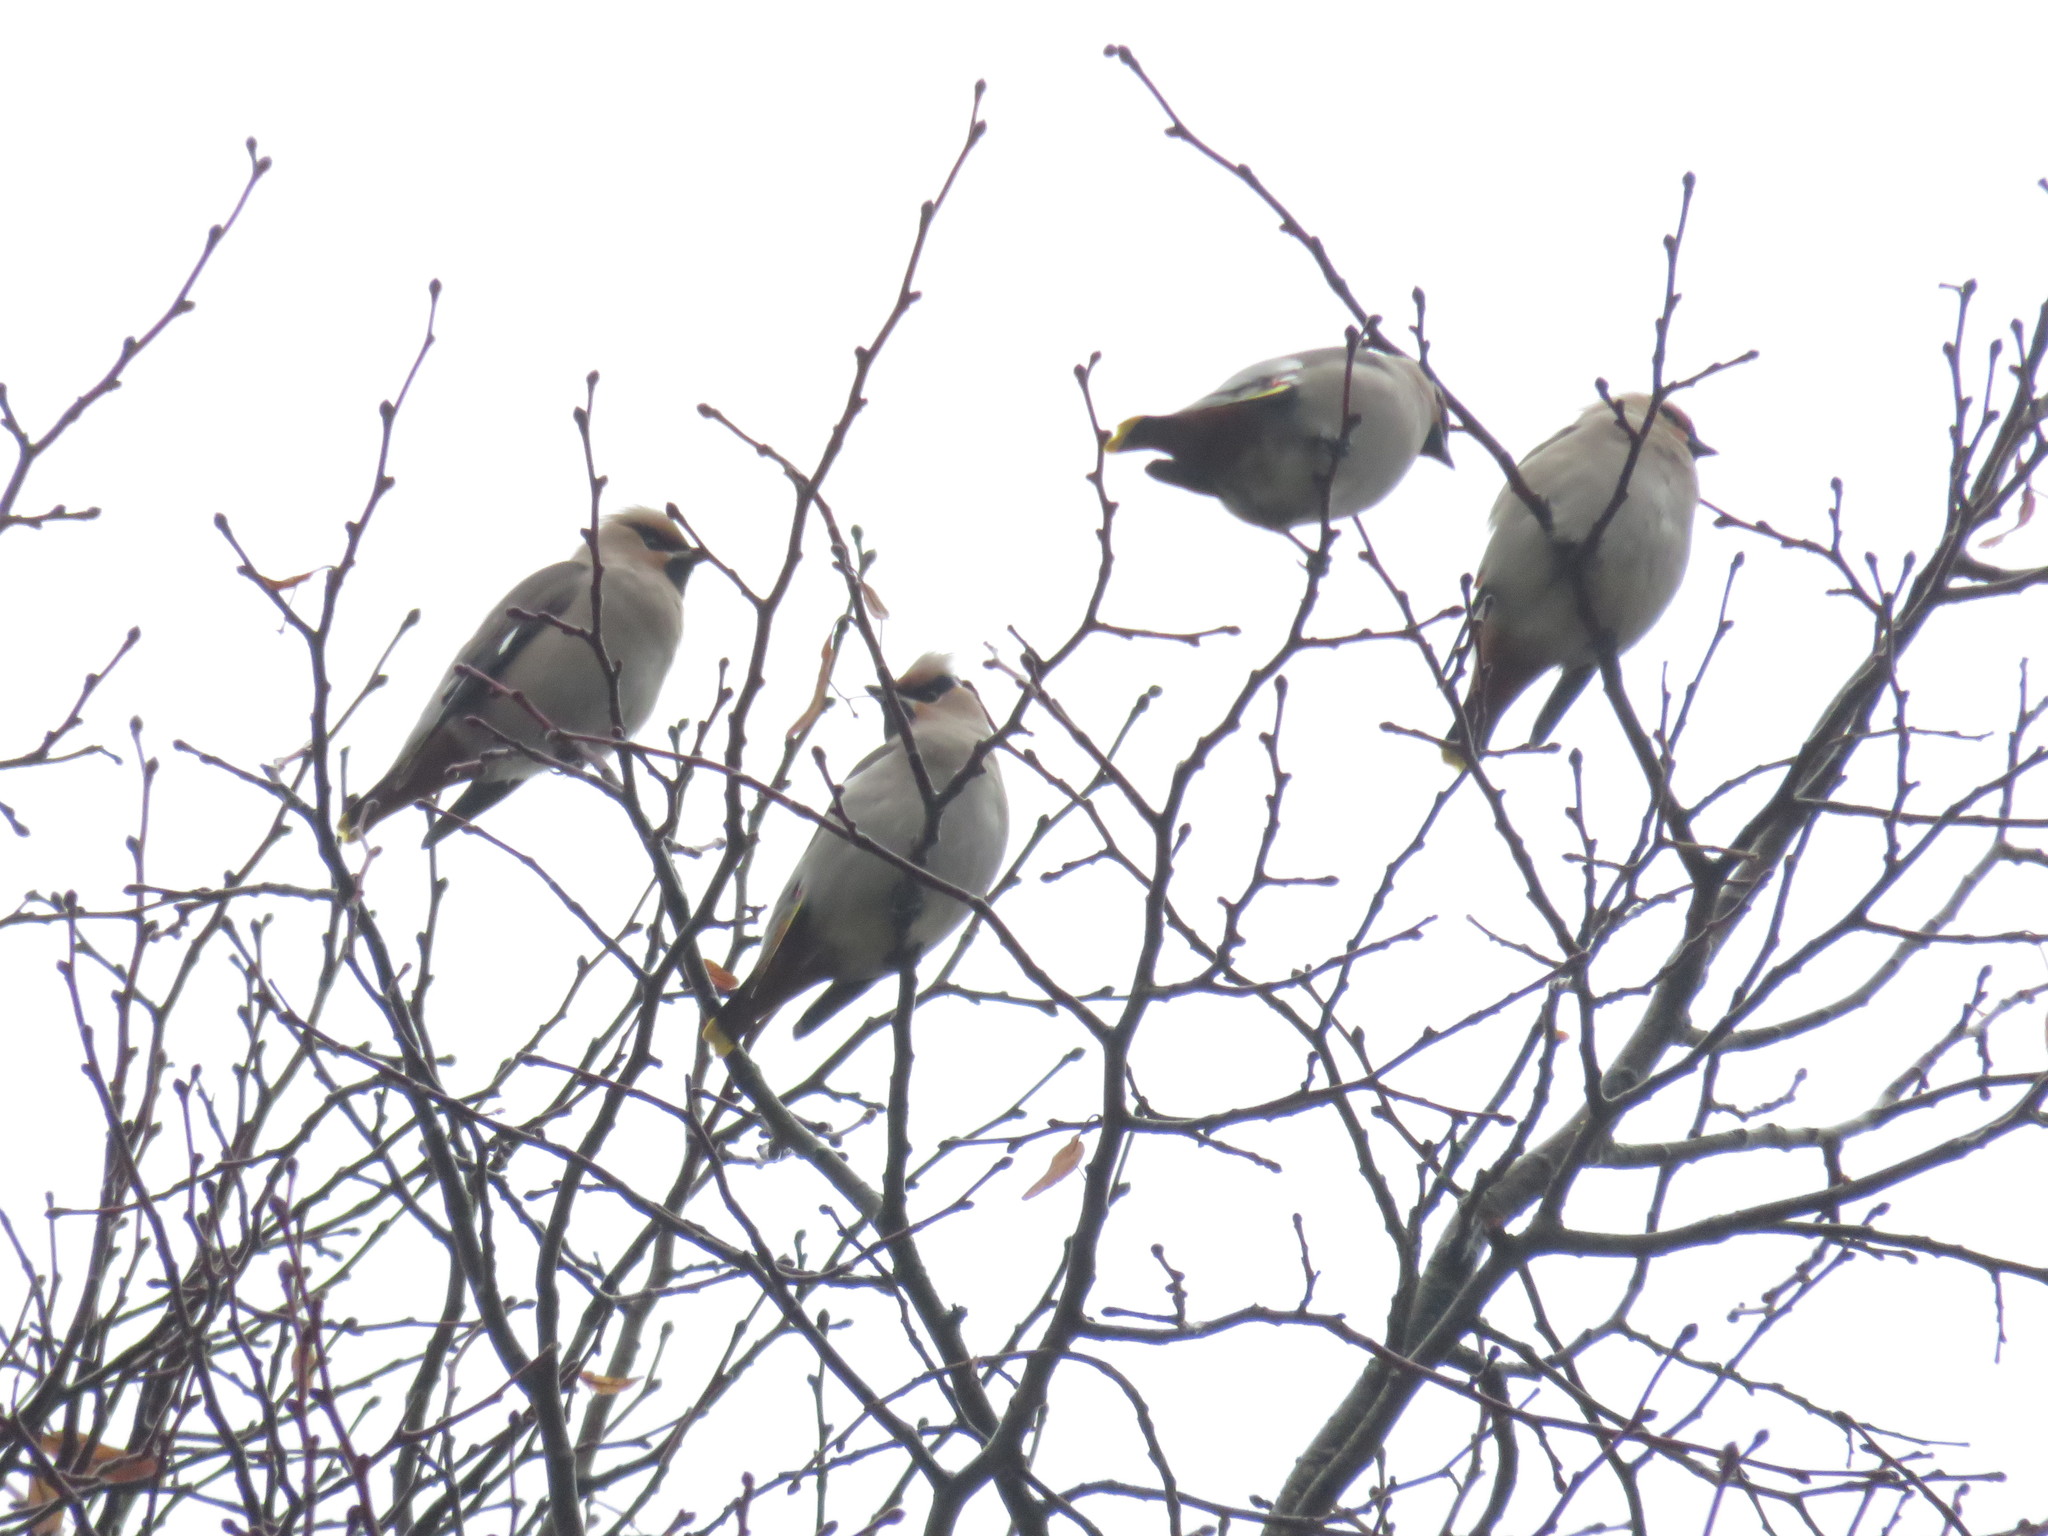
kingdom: Animalia
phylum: Chordata
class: Aves
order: Passeriformes
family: Bombycillidae
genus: Bombycilla
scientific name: Bombycilla garrulus
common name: Bohemian waxwing
